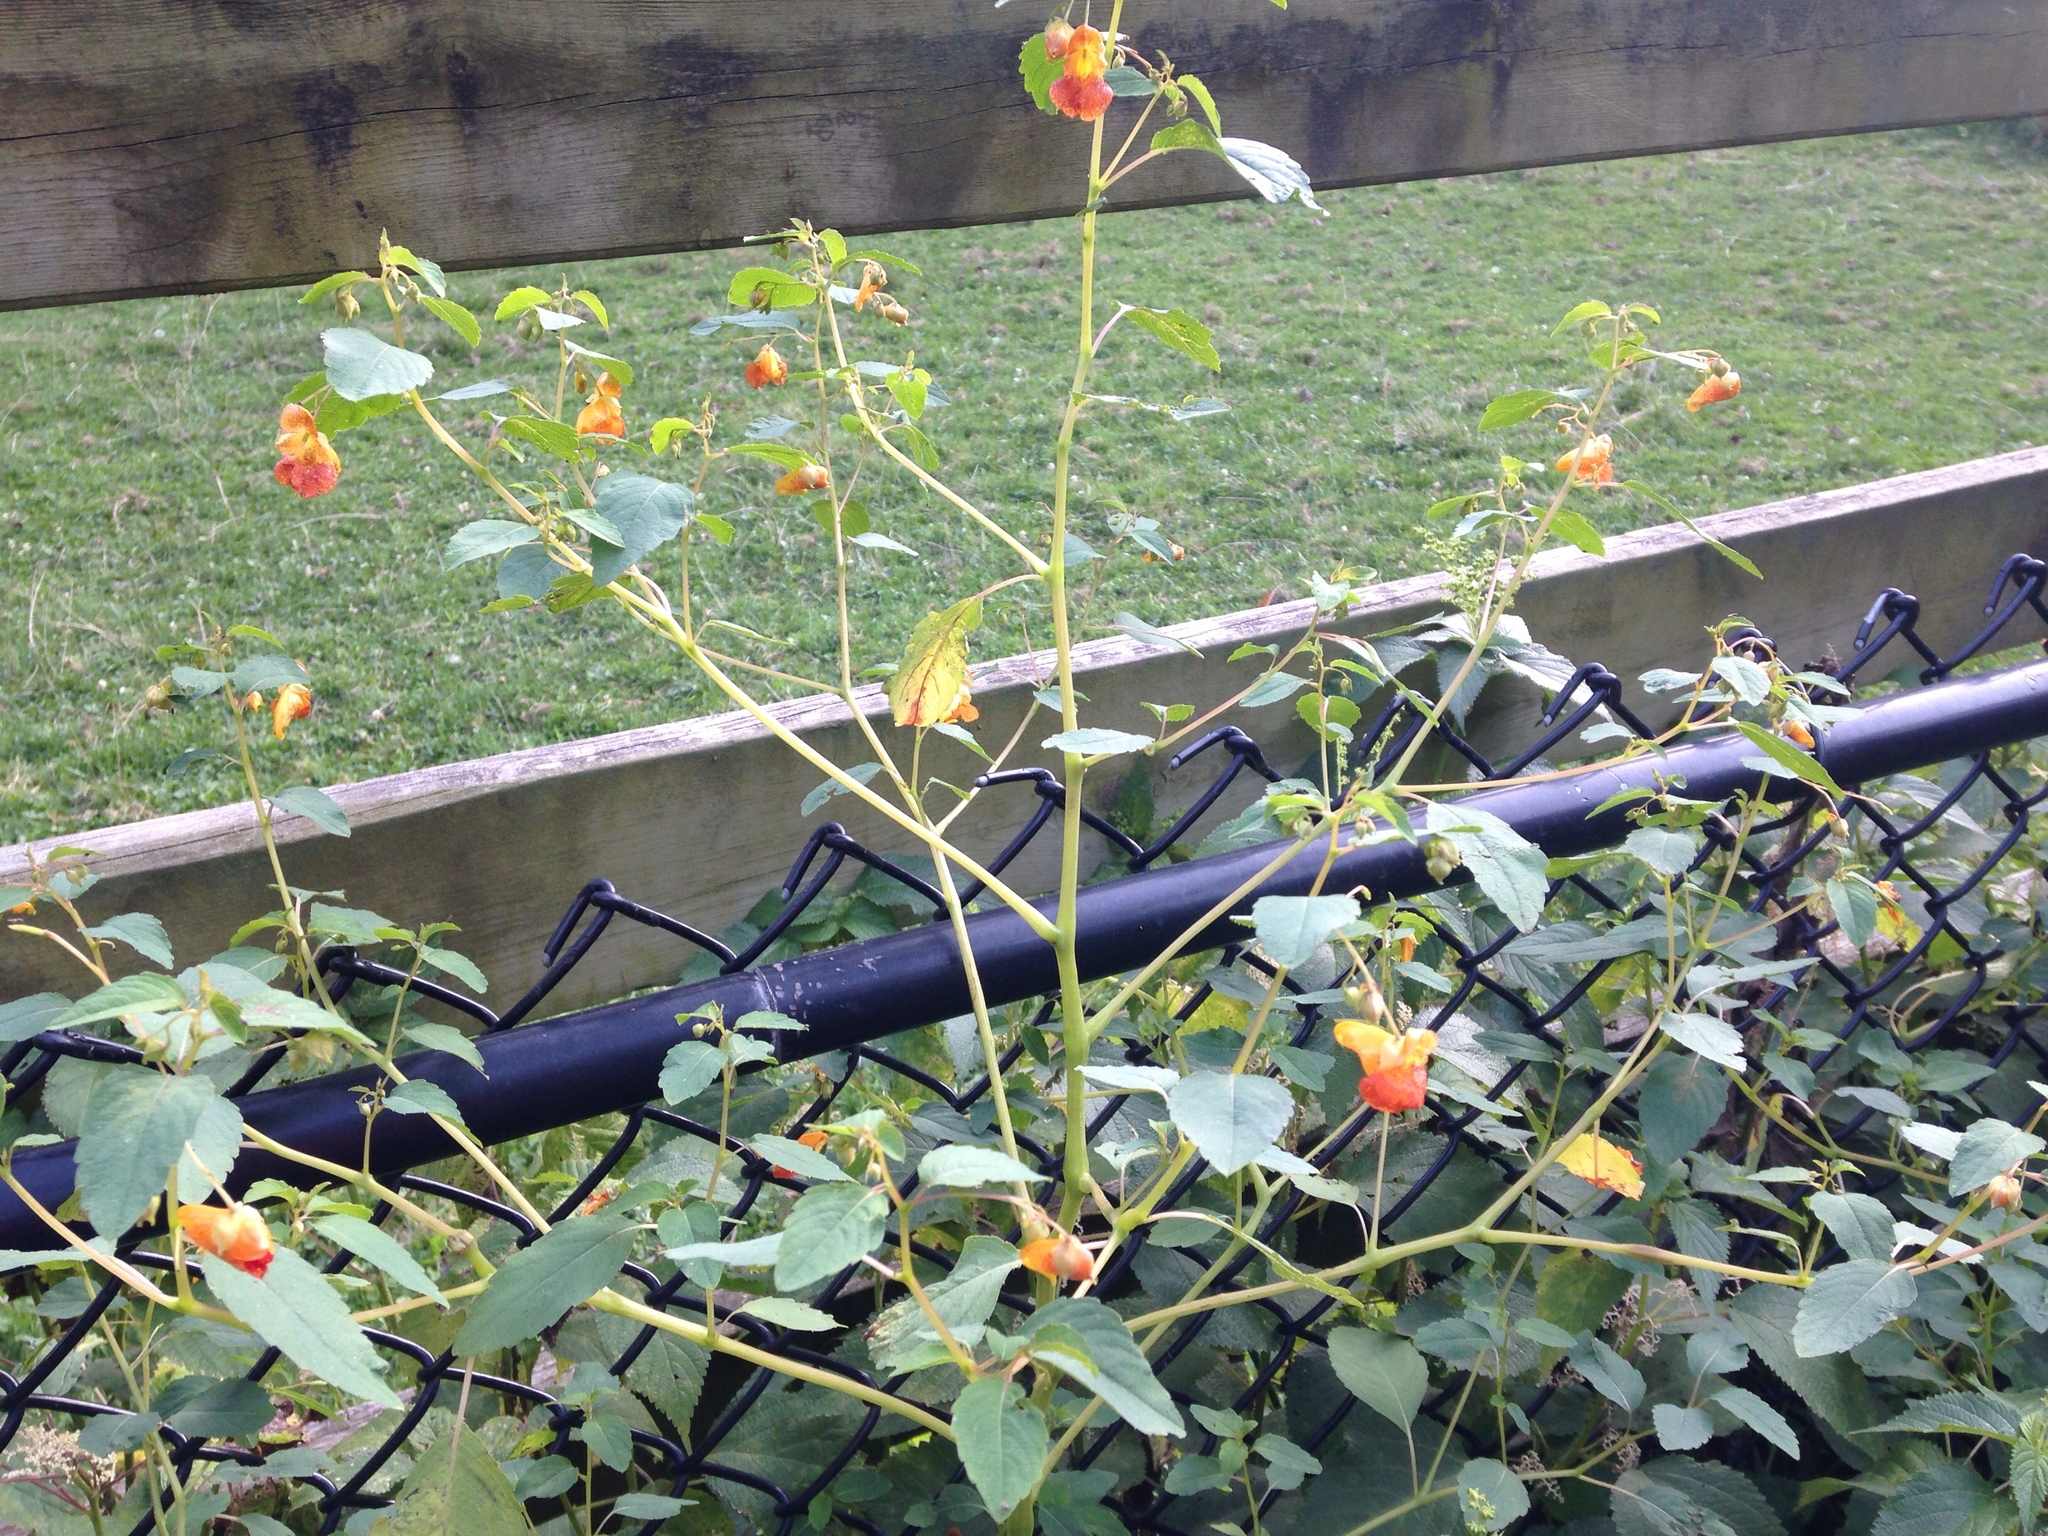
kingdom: Plantae
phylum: Tracheophyta
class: Magnoliopsida
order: Ericales
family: Balsaminaceae
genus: Impatiens
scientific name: Impatiens capensis
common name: Orange balsam
